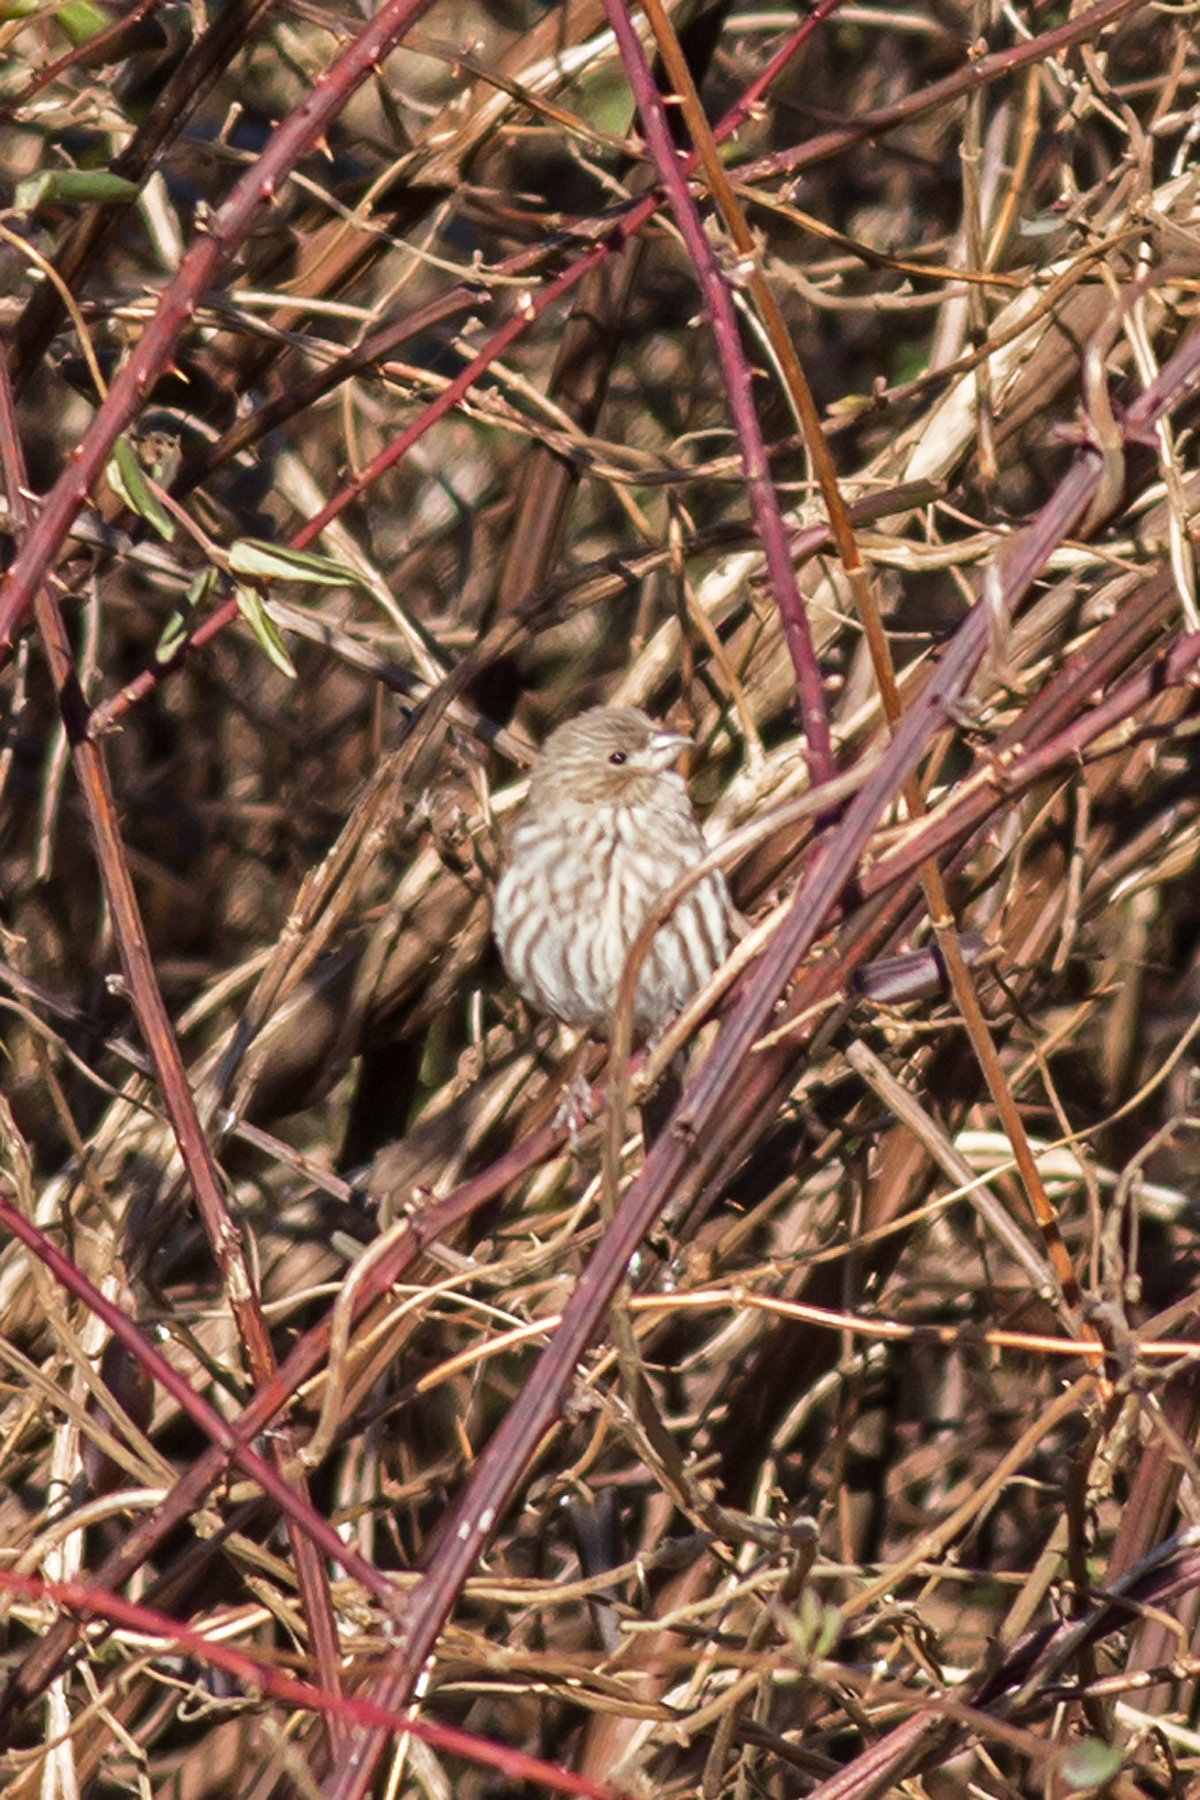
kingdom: Animalia
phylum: Chordata
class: Aves
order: Passeriformes
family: Fringillidae
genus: Haemorhous
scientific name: Haemorhous mexicanus
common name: House finch
